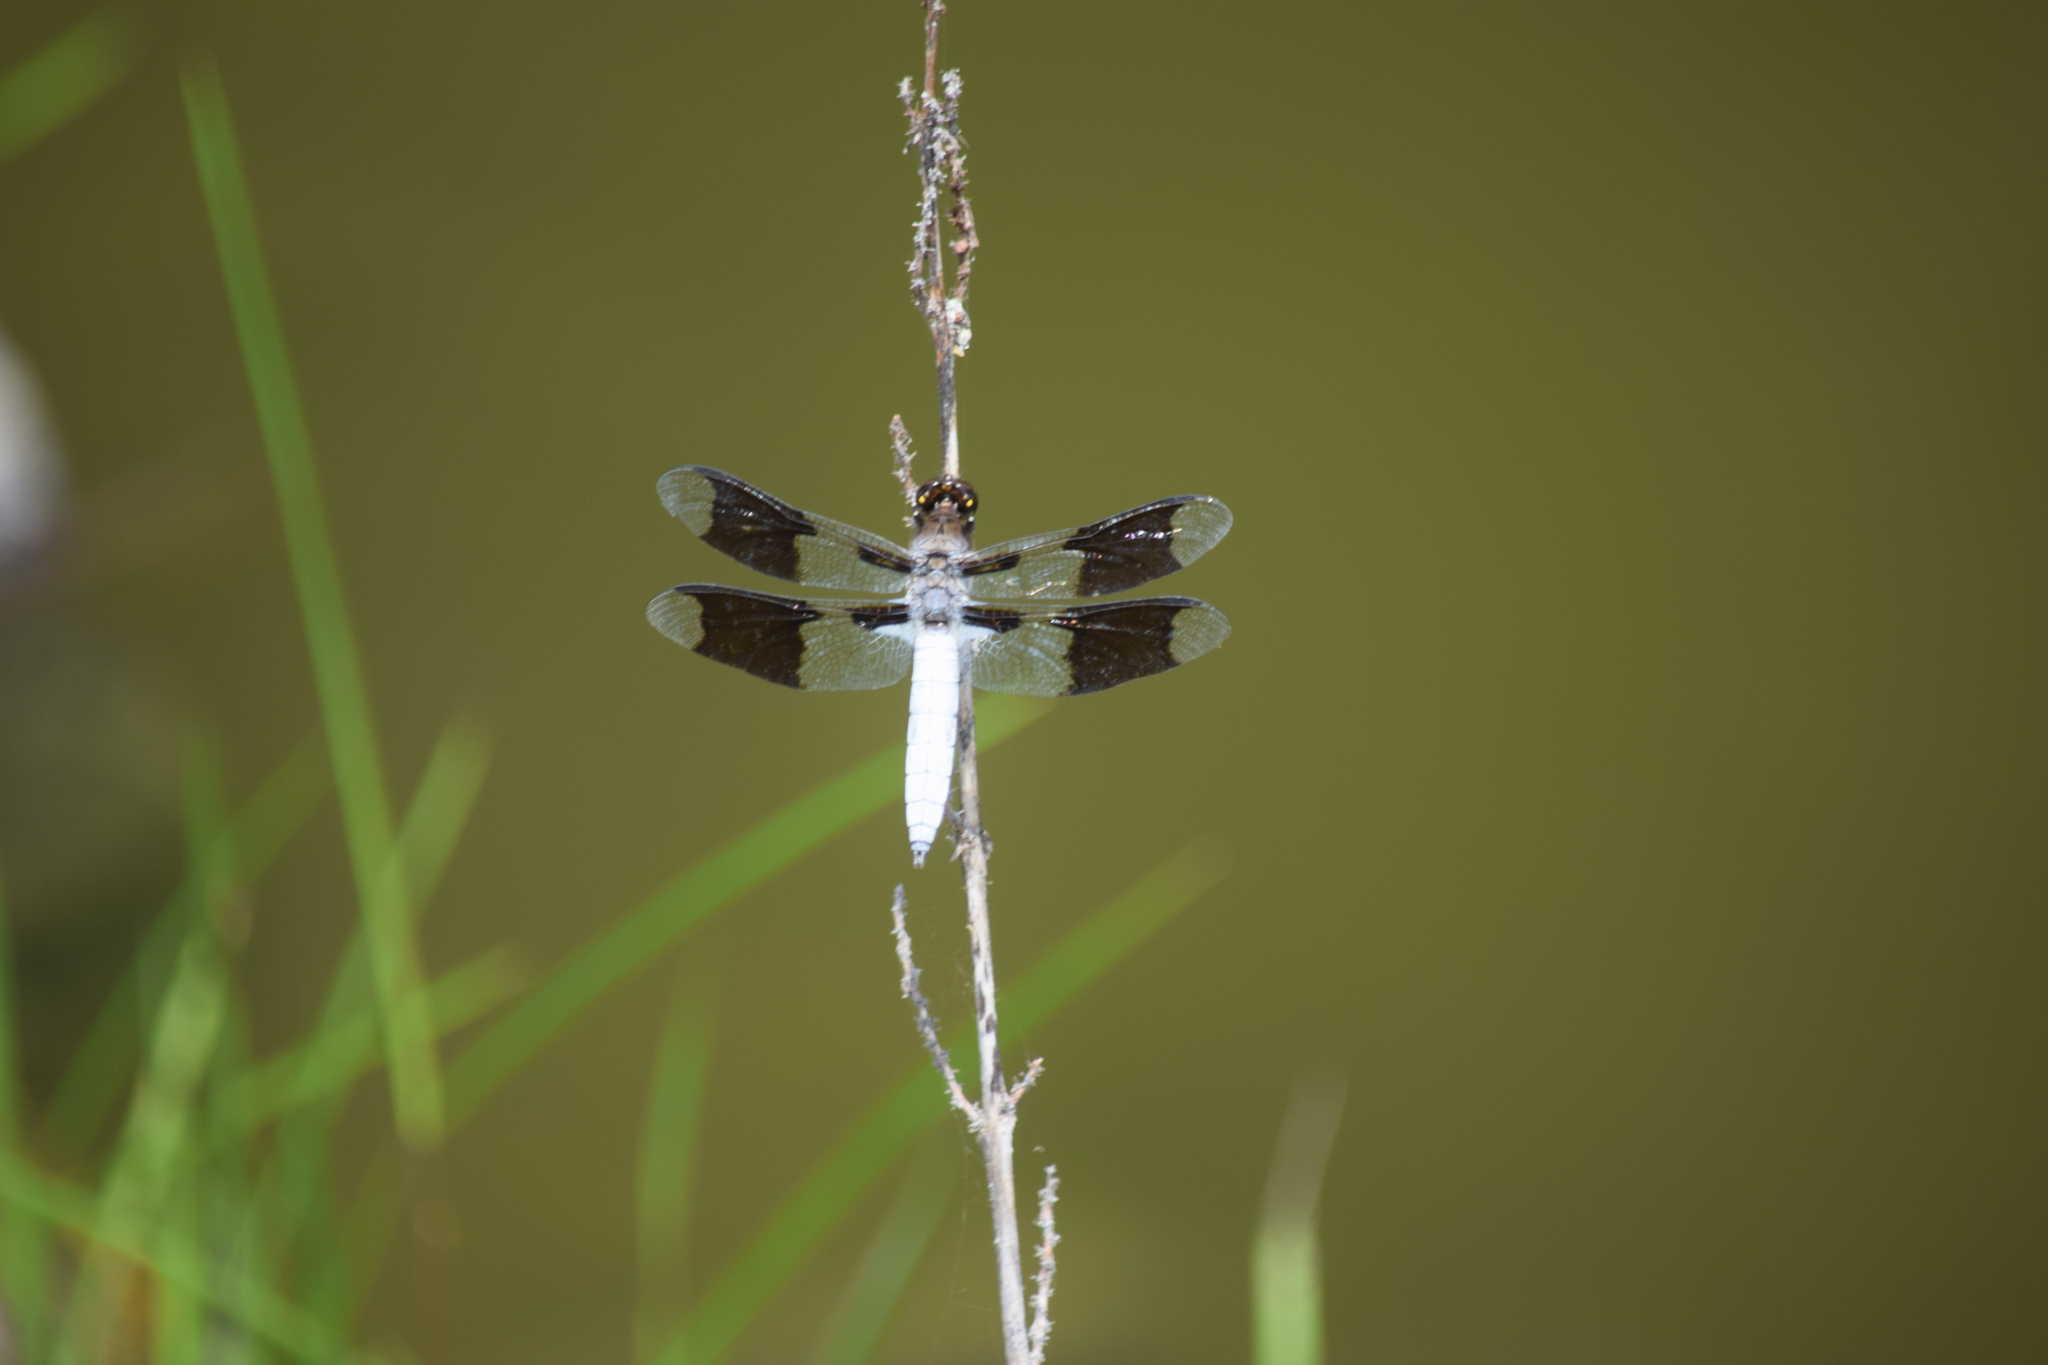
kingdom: Animalia
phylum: Arthropoda
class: Insecta
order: Odonata
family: Libellulidae
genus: Plathemis
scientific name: Plathemis lydia
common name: Common whitetail
